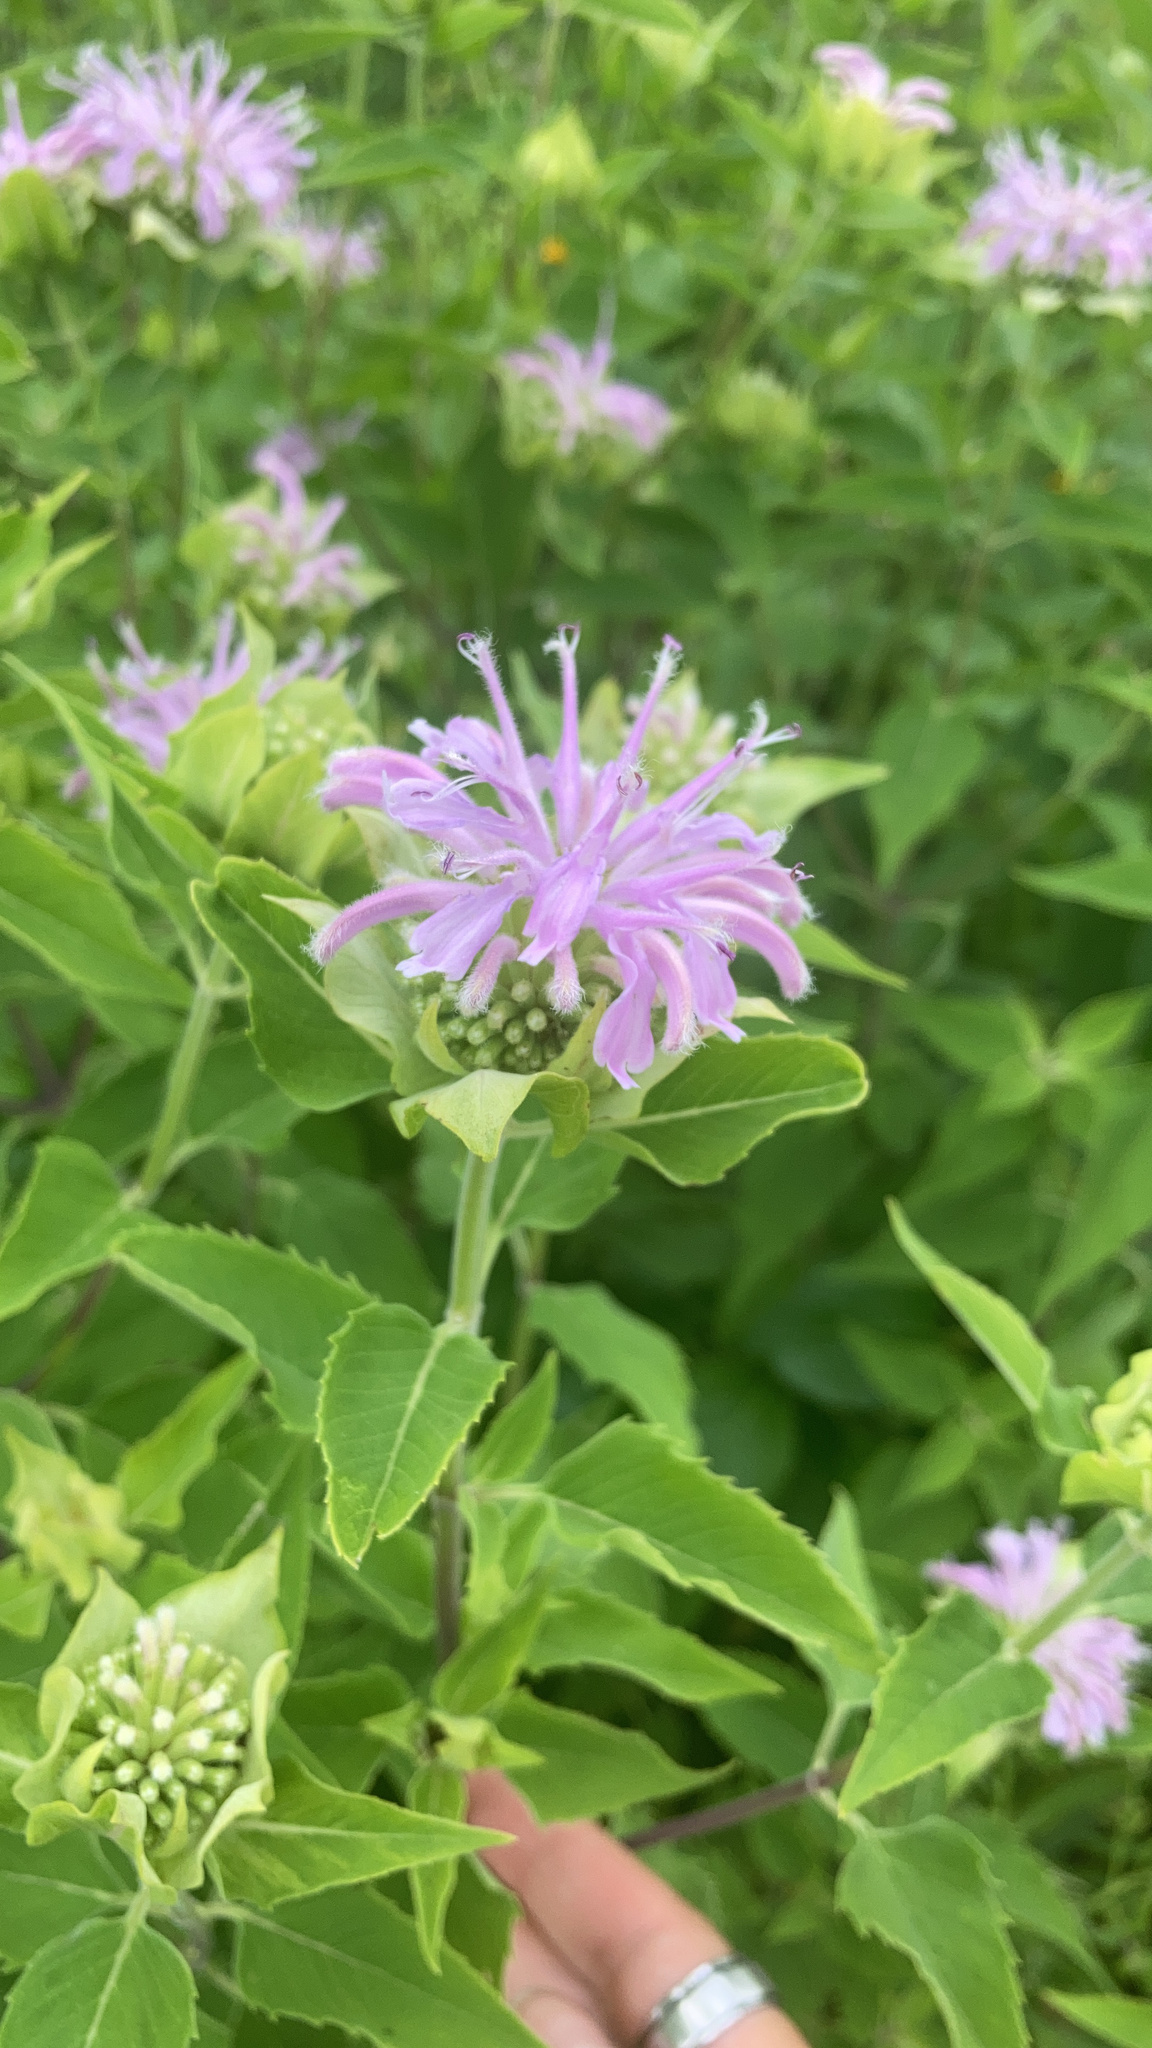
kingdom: Plantae
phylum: Tracheophyta
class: Magnoliopsida
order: Lamiales
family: Lamiaceae
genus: Monarda
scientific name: Monarda fistulosa
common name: Purple beebalm
